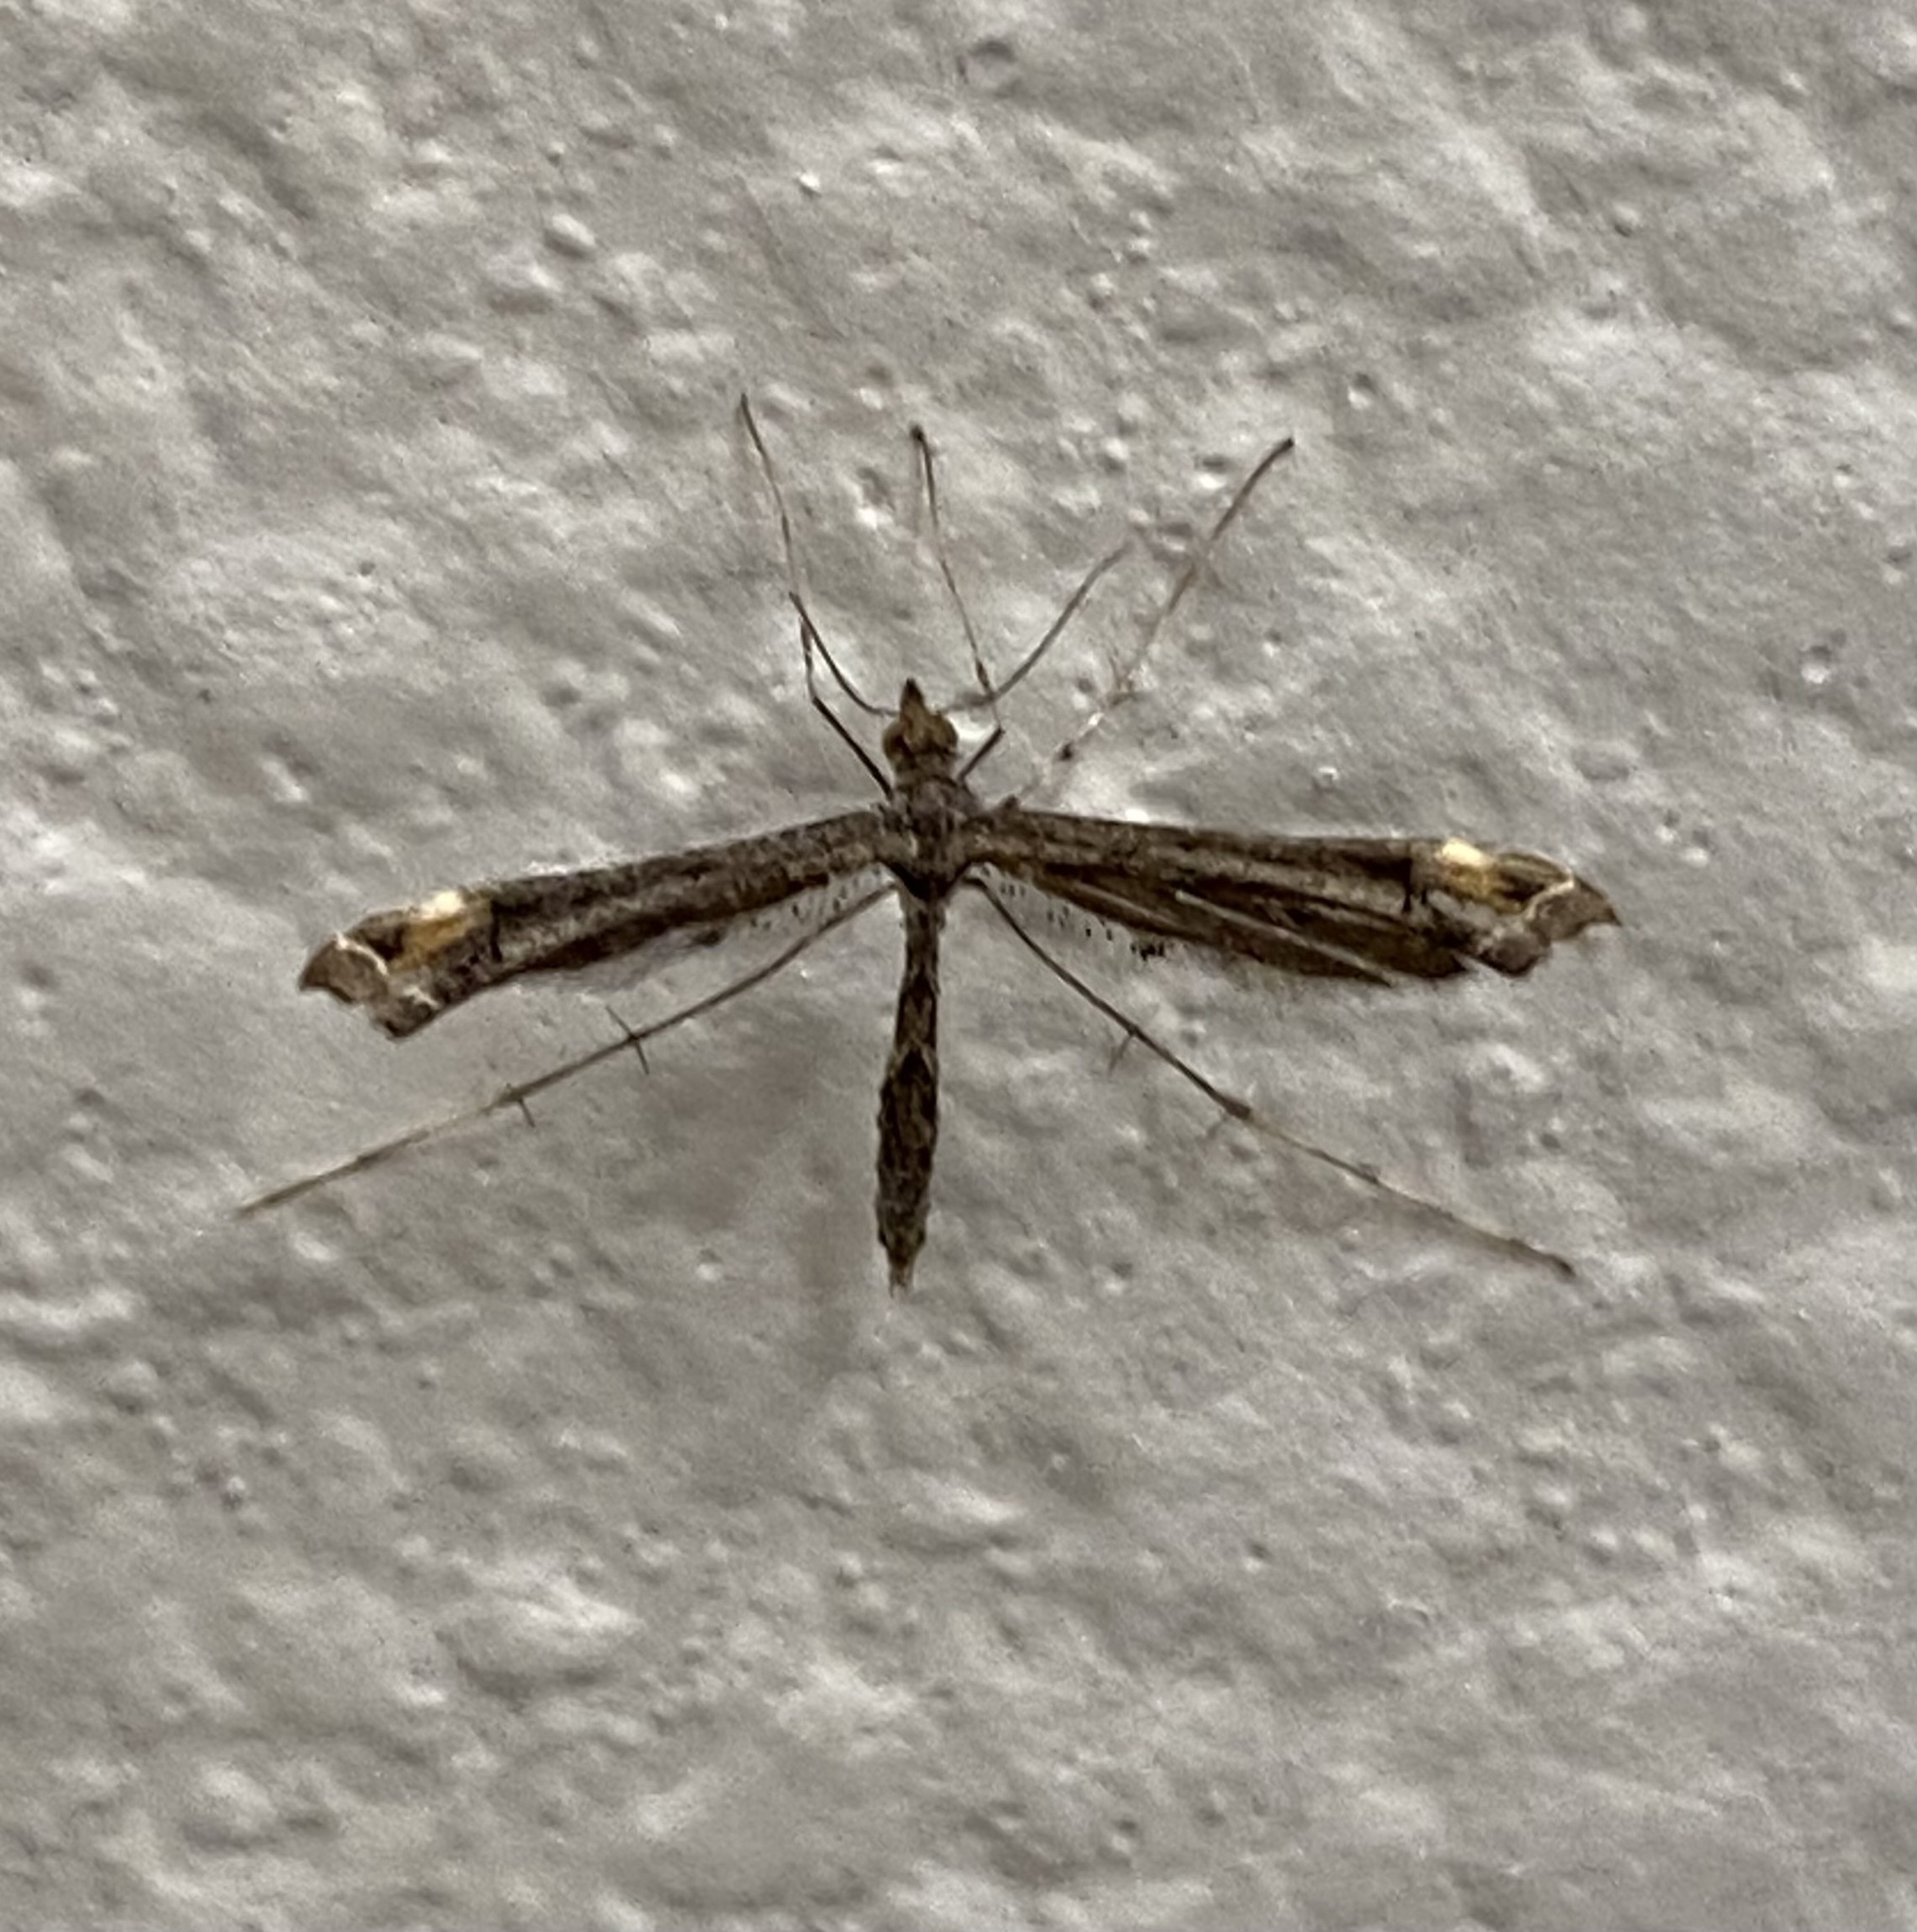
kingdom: Animalia
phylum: Arthropoda
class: Insecta
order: Lepidoptera
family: Pterophoridae
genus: Anstenoptilia
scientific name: Anstenoptilia marmarodactyla
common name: Moth
